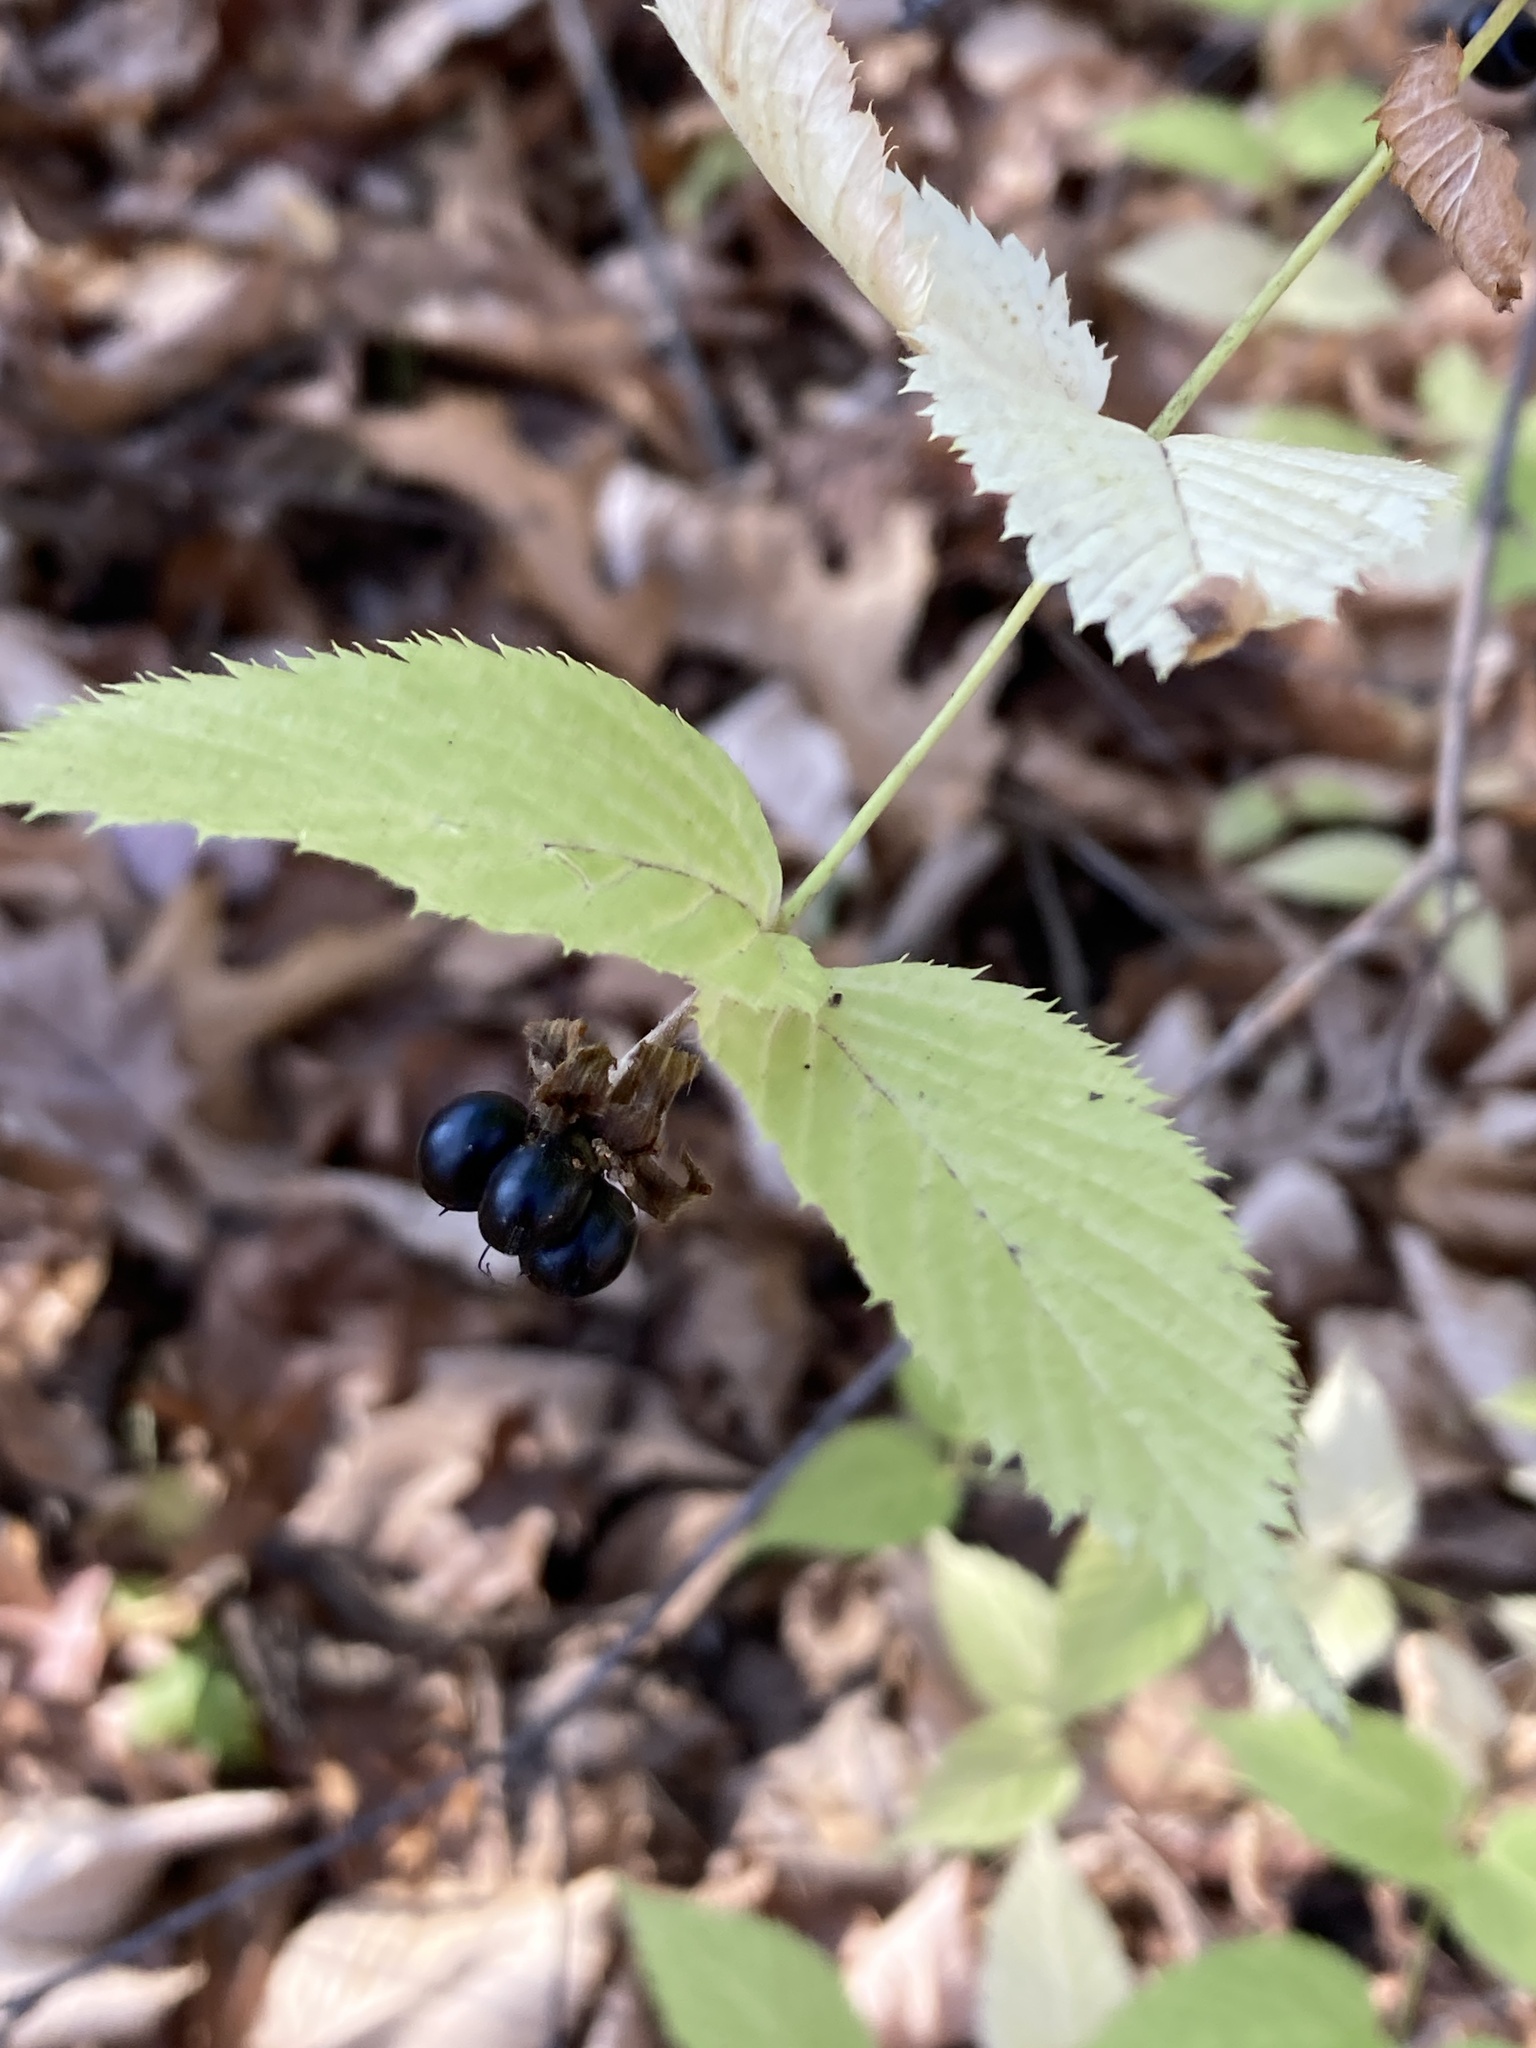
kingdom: Plantae
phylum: Tracheophyta
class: Magnoliopsida
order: Rosales
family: Rosaceae
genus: Rhodotypos
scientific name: Rhodotypos scandens
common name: Jetbead
